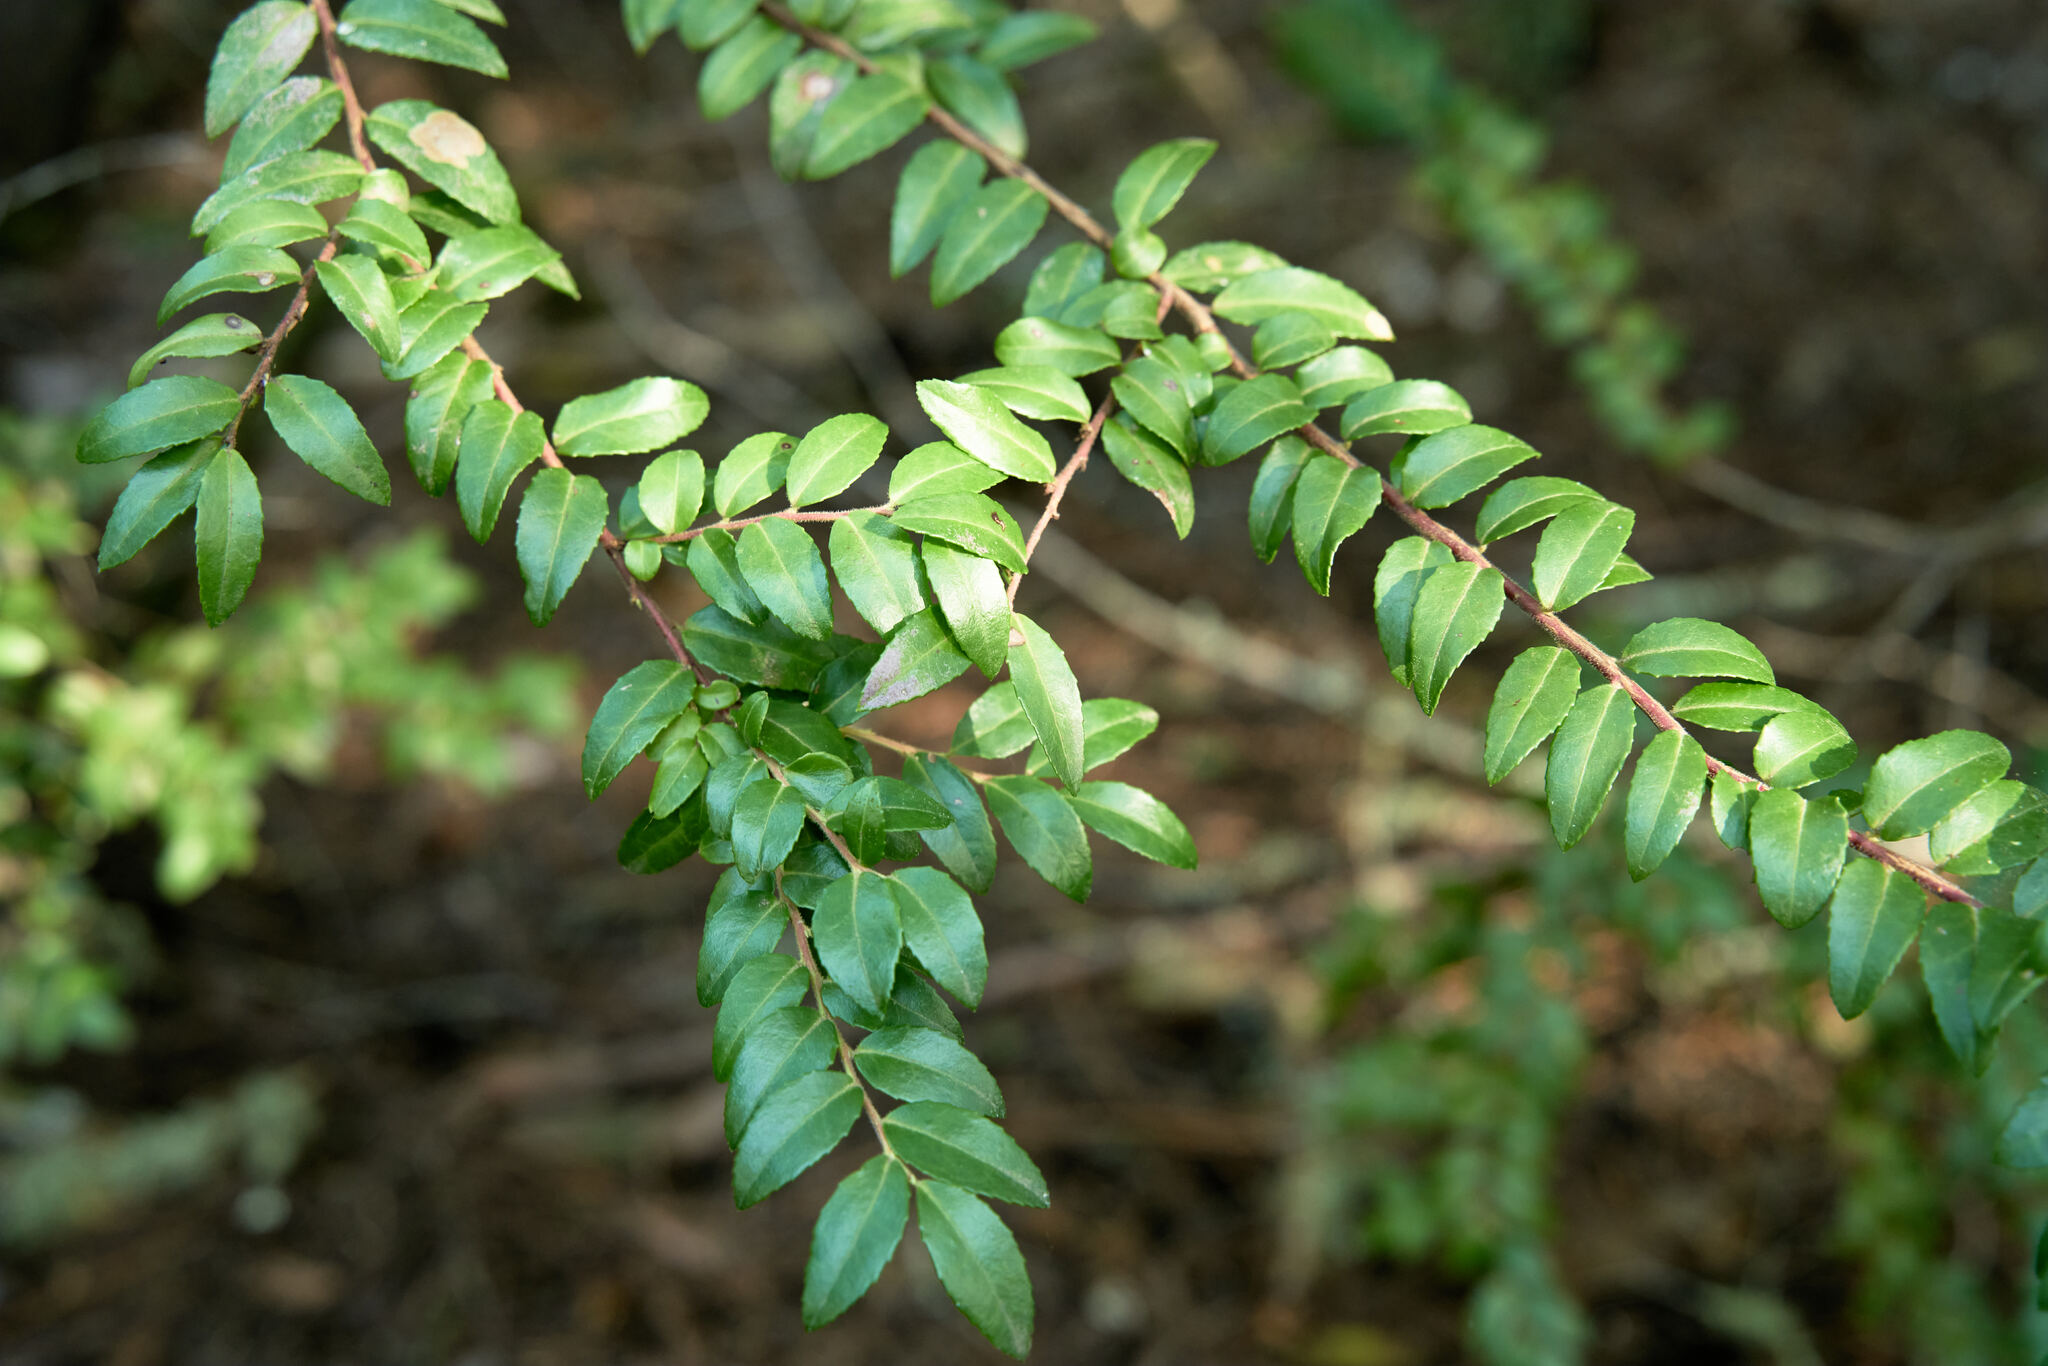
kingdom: Plantae
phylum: Tracheophyta
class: Magnoliopsida
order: Ericales
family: Ericaceae
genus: Vaccinium
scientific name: Vaccinium ovatum
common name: California-huckleberry
